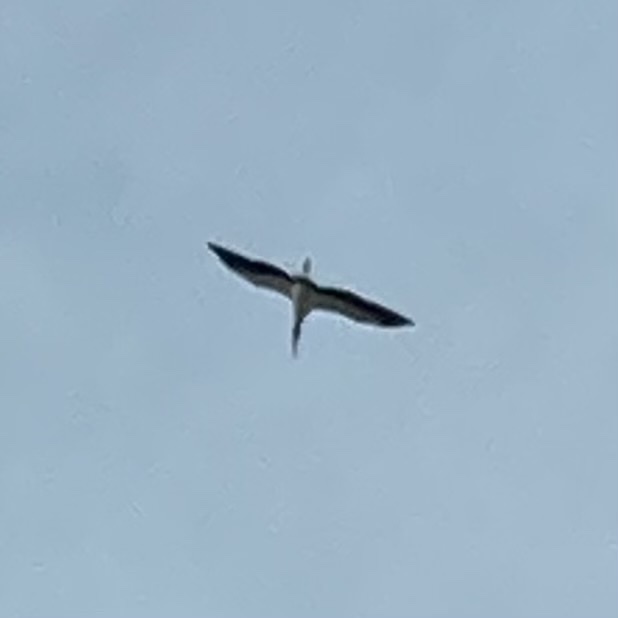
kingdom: Animalia
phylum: Chordata
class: Aves
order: Ciconiiformes
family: Ciconiidae
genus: Mycteria
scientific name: Mycteria americana
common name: Wood stork
